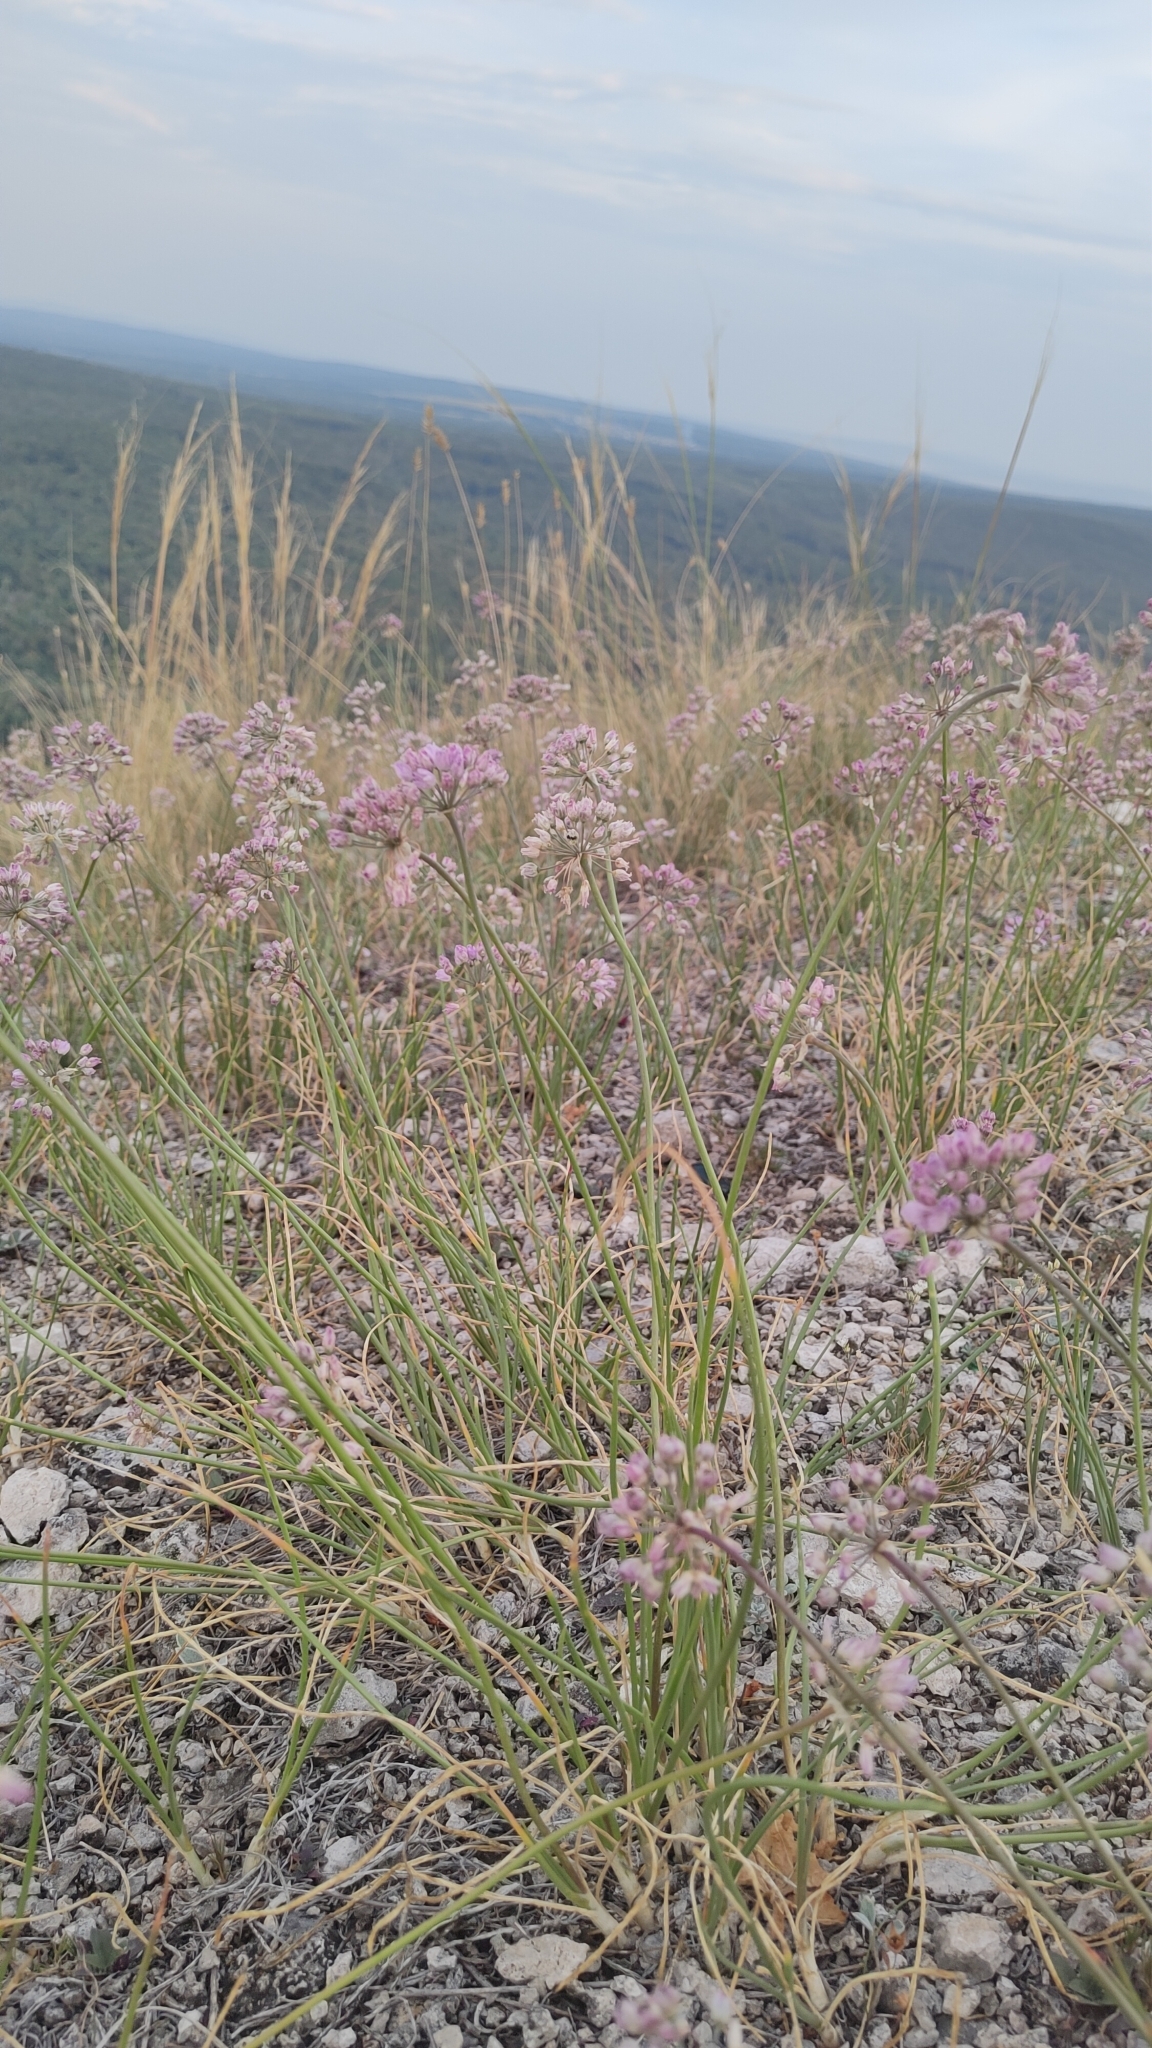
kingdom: Plantae
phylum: Tracheophyta
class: Liliopsida
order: Asparagales
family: Amaryllidaceae
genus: Allium
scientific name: Allium rubens
